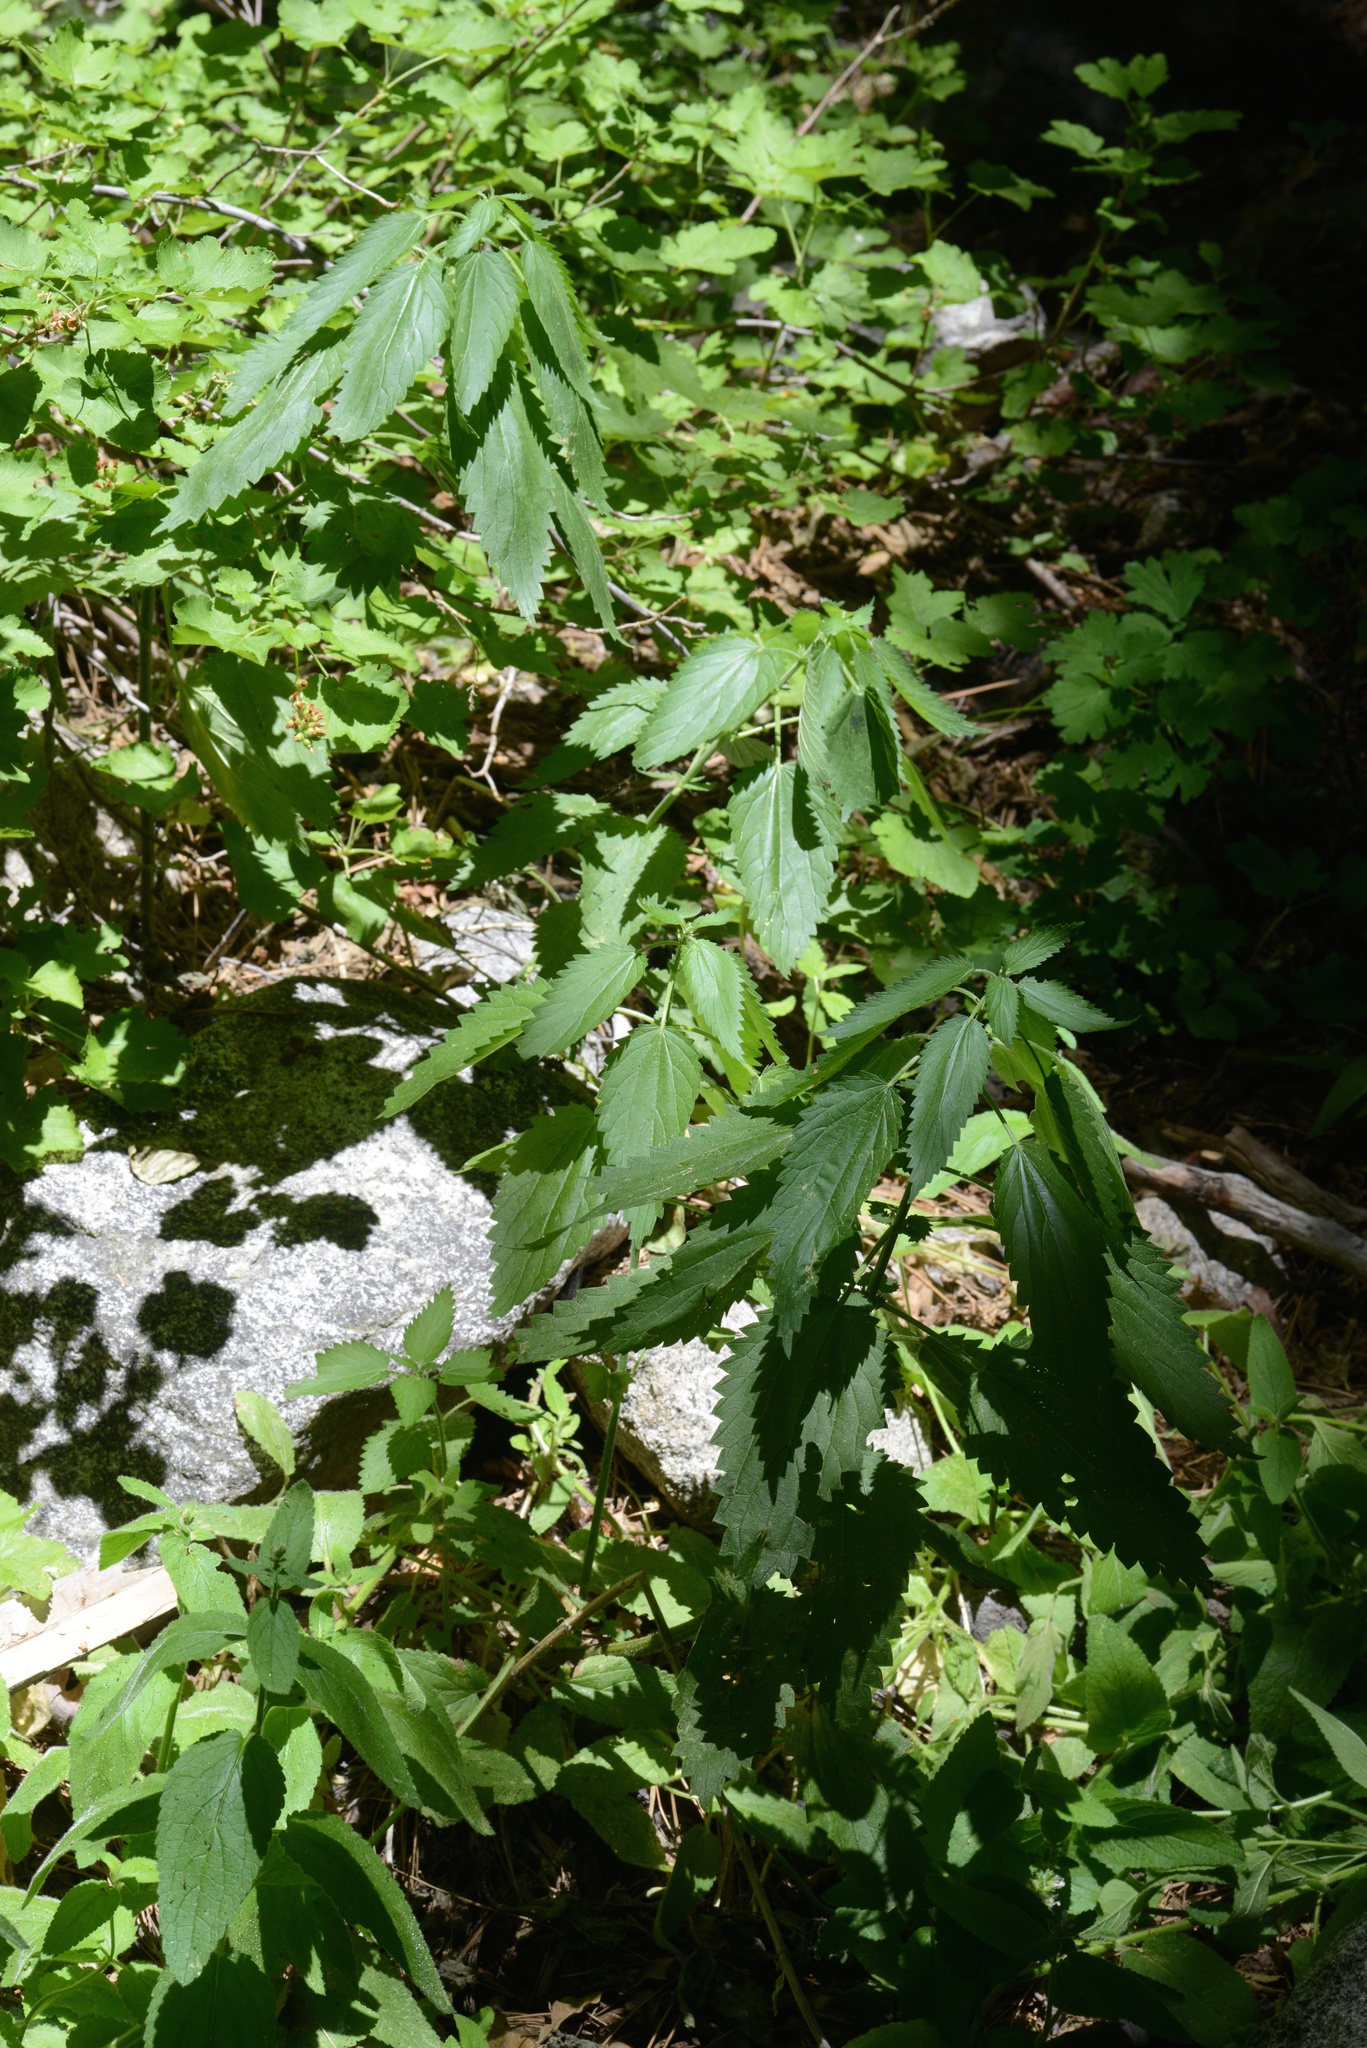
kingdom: Plantae
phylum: Tracheophyta
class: Magnoliopsida
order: Rosales
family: Urticaceae
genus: Urtica
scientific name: Urtica dioica
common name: Common nettle
